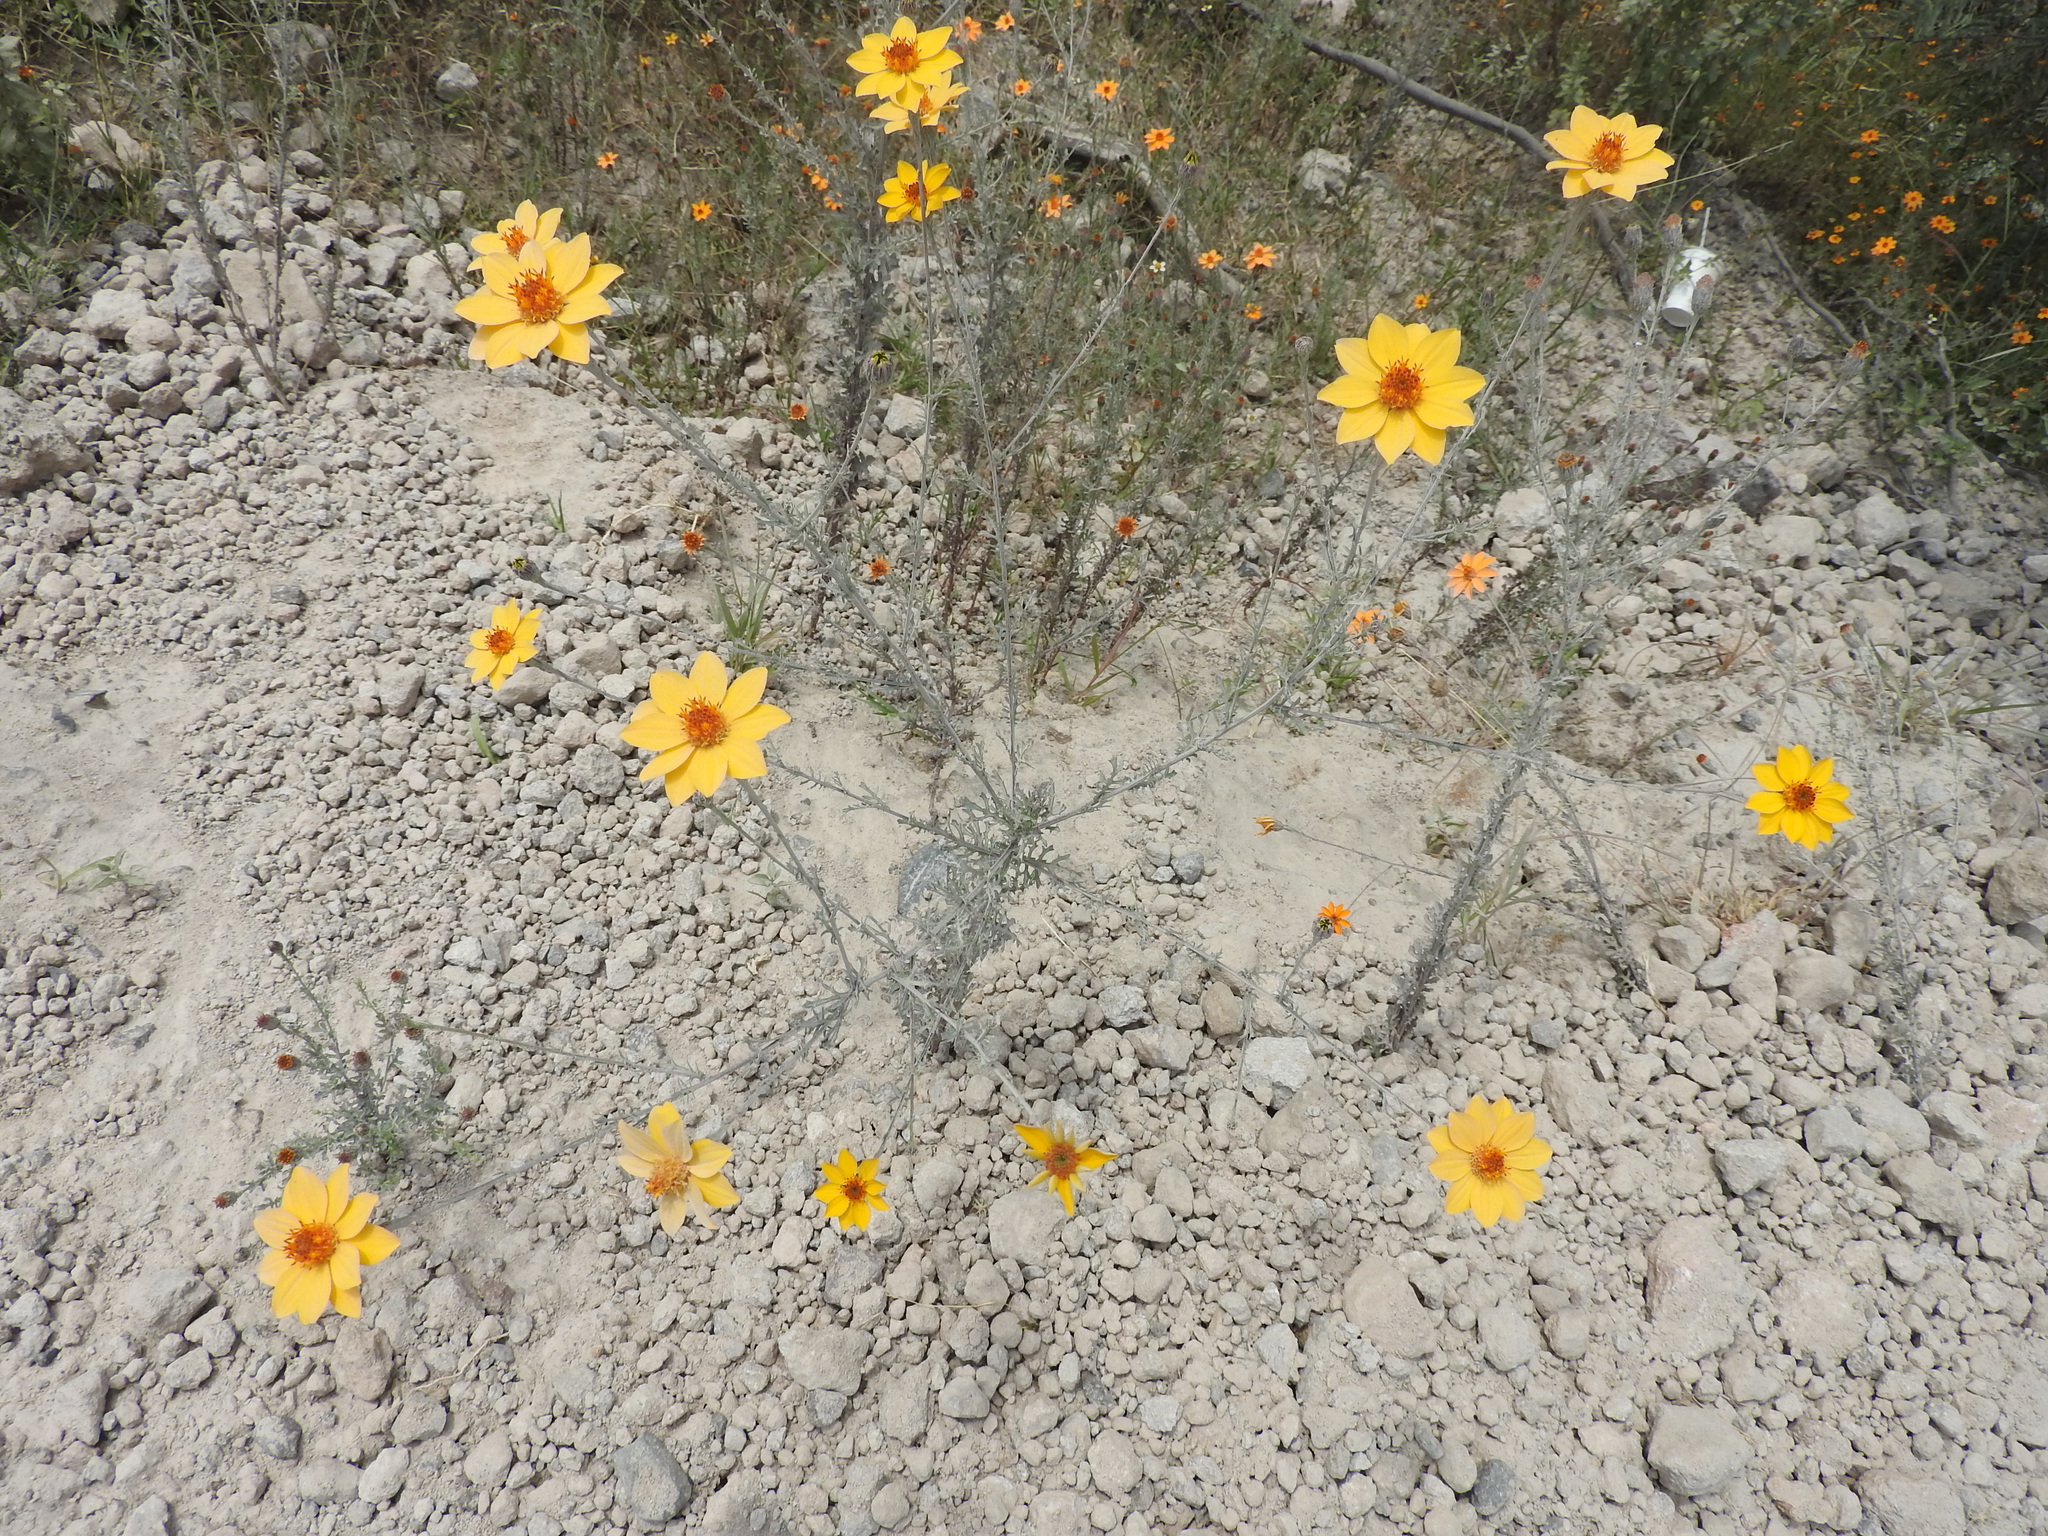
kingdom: Plantae
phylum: Tracheophyta
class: Magnoliopsida
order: Asterales
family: Asteraceae
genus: Adenophyllum
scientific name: Adenophyllum cancellatum
